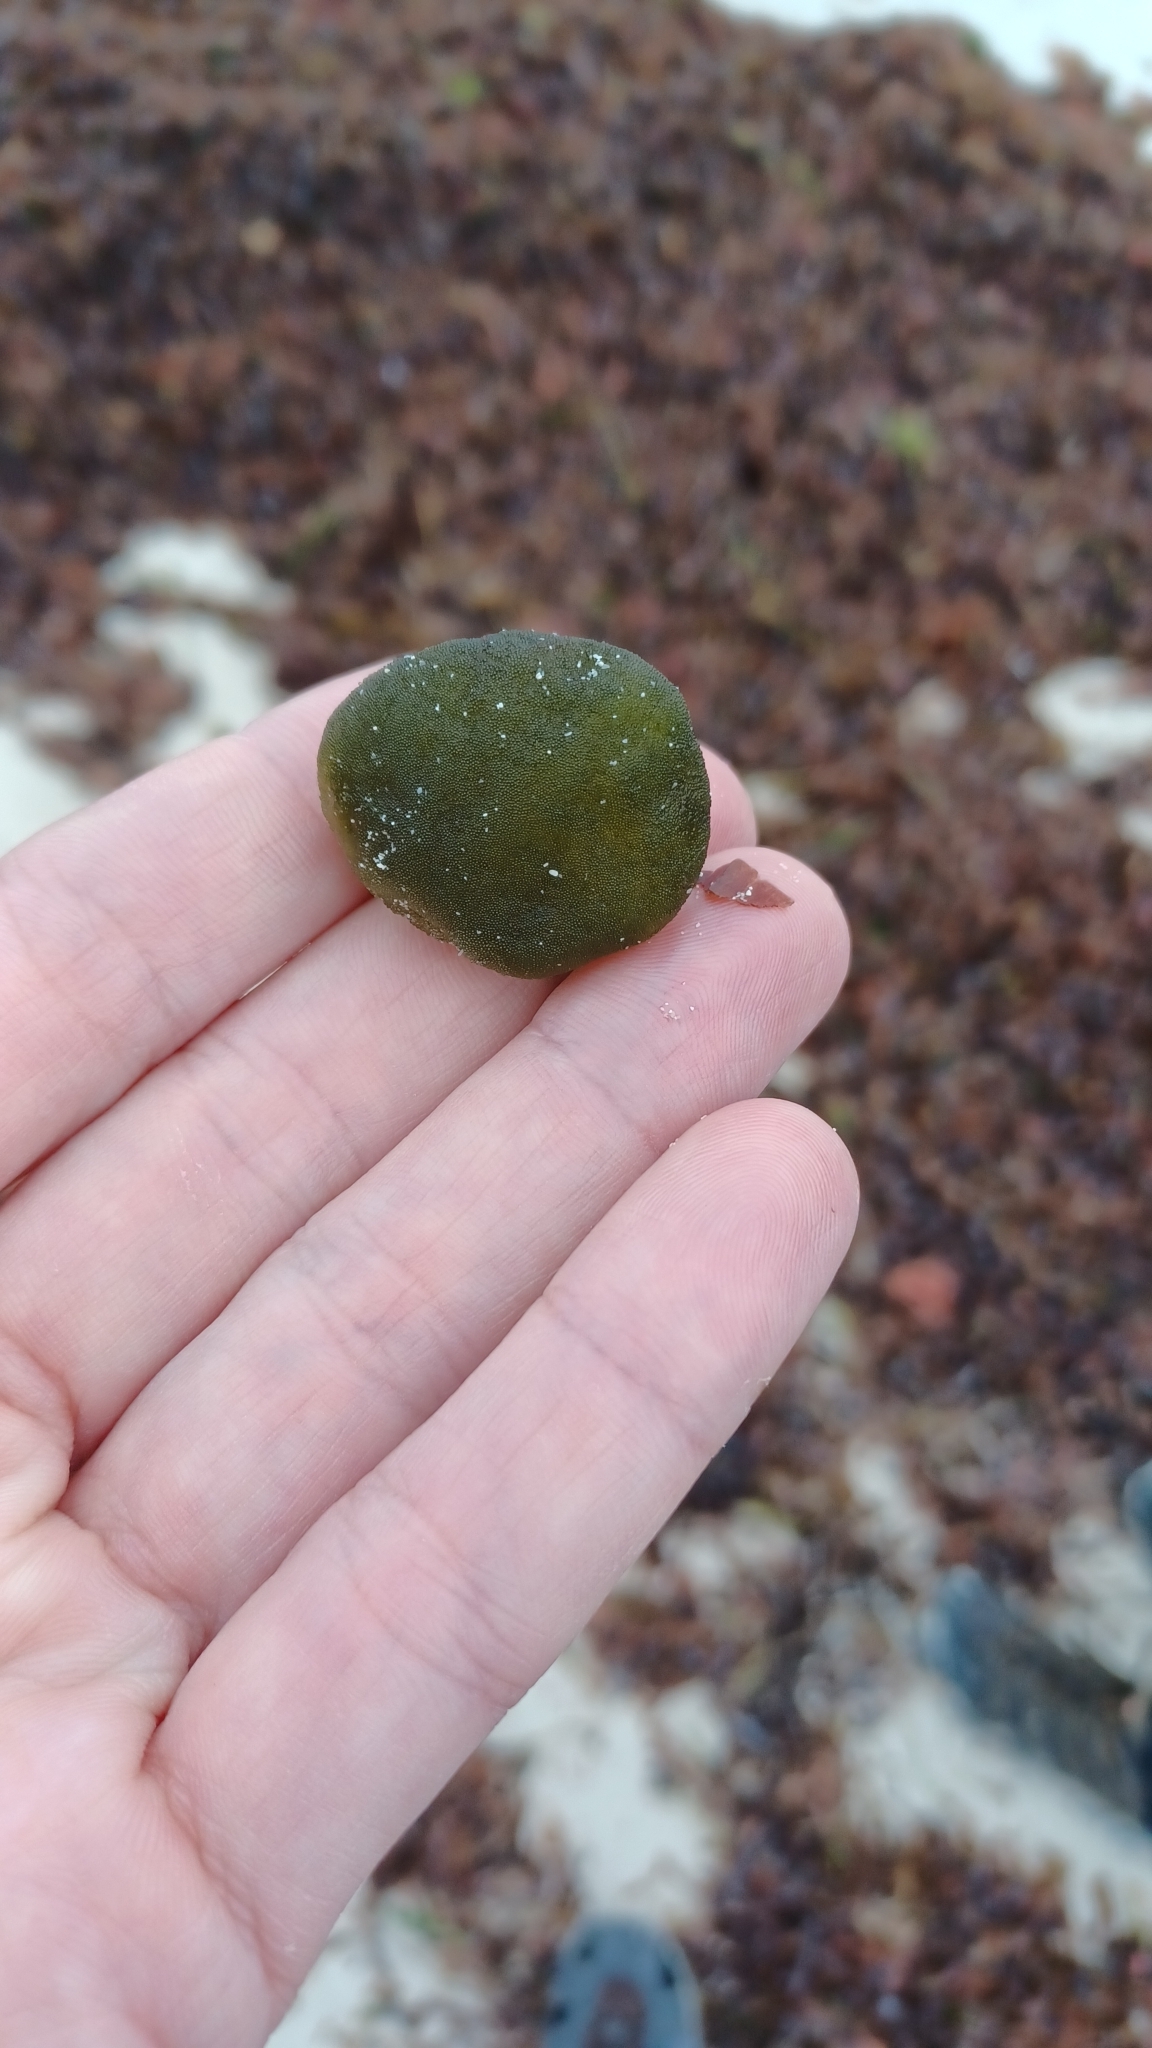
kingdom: Plantae
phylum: Chlorophyta
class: Ulvophyceae
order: Bryopsidales
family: Codiaceae
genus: Codium
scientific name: Codium mamillosum
